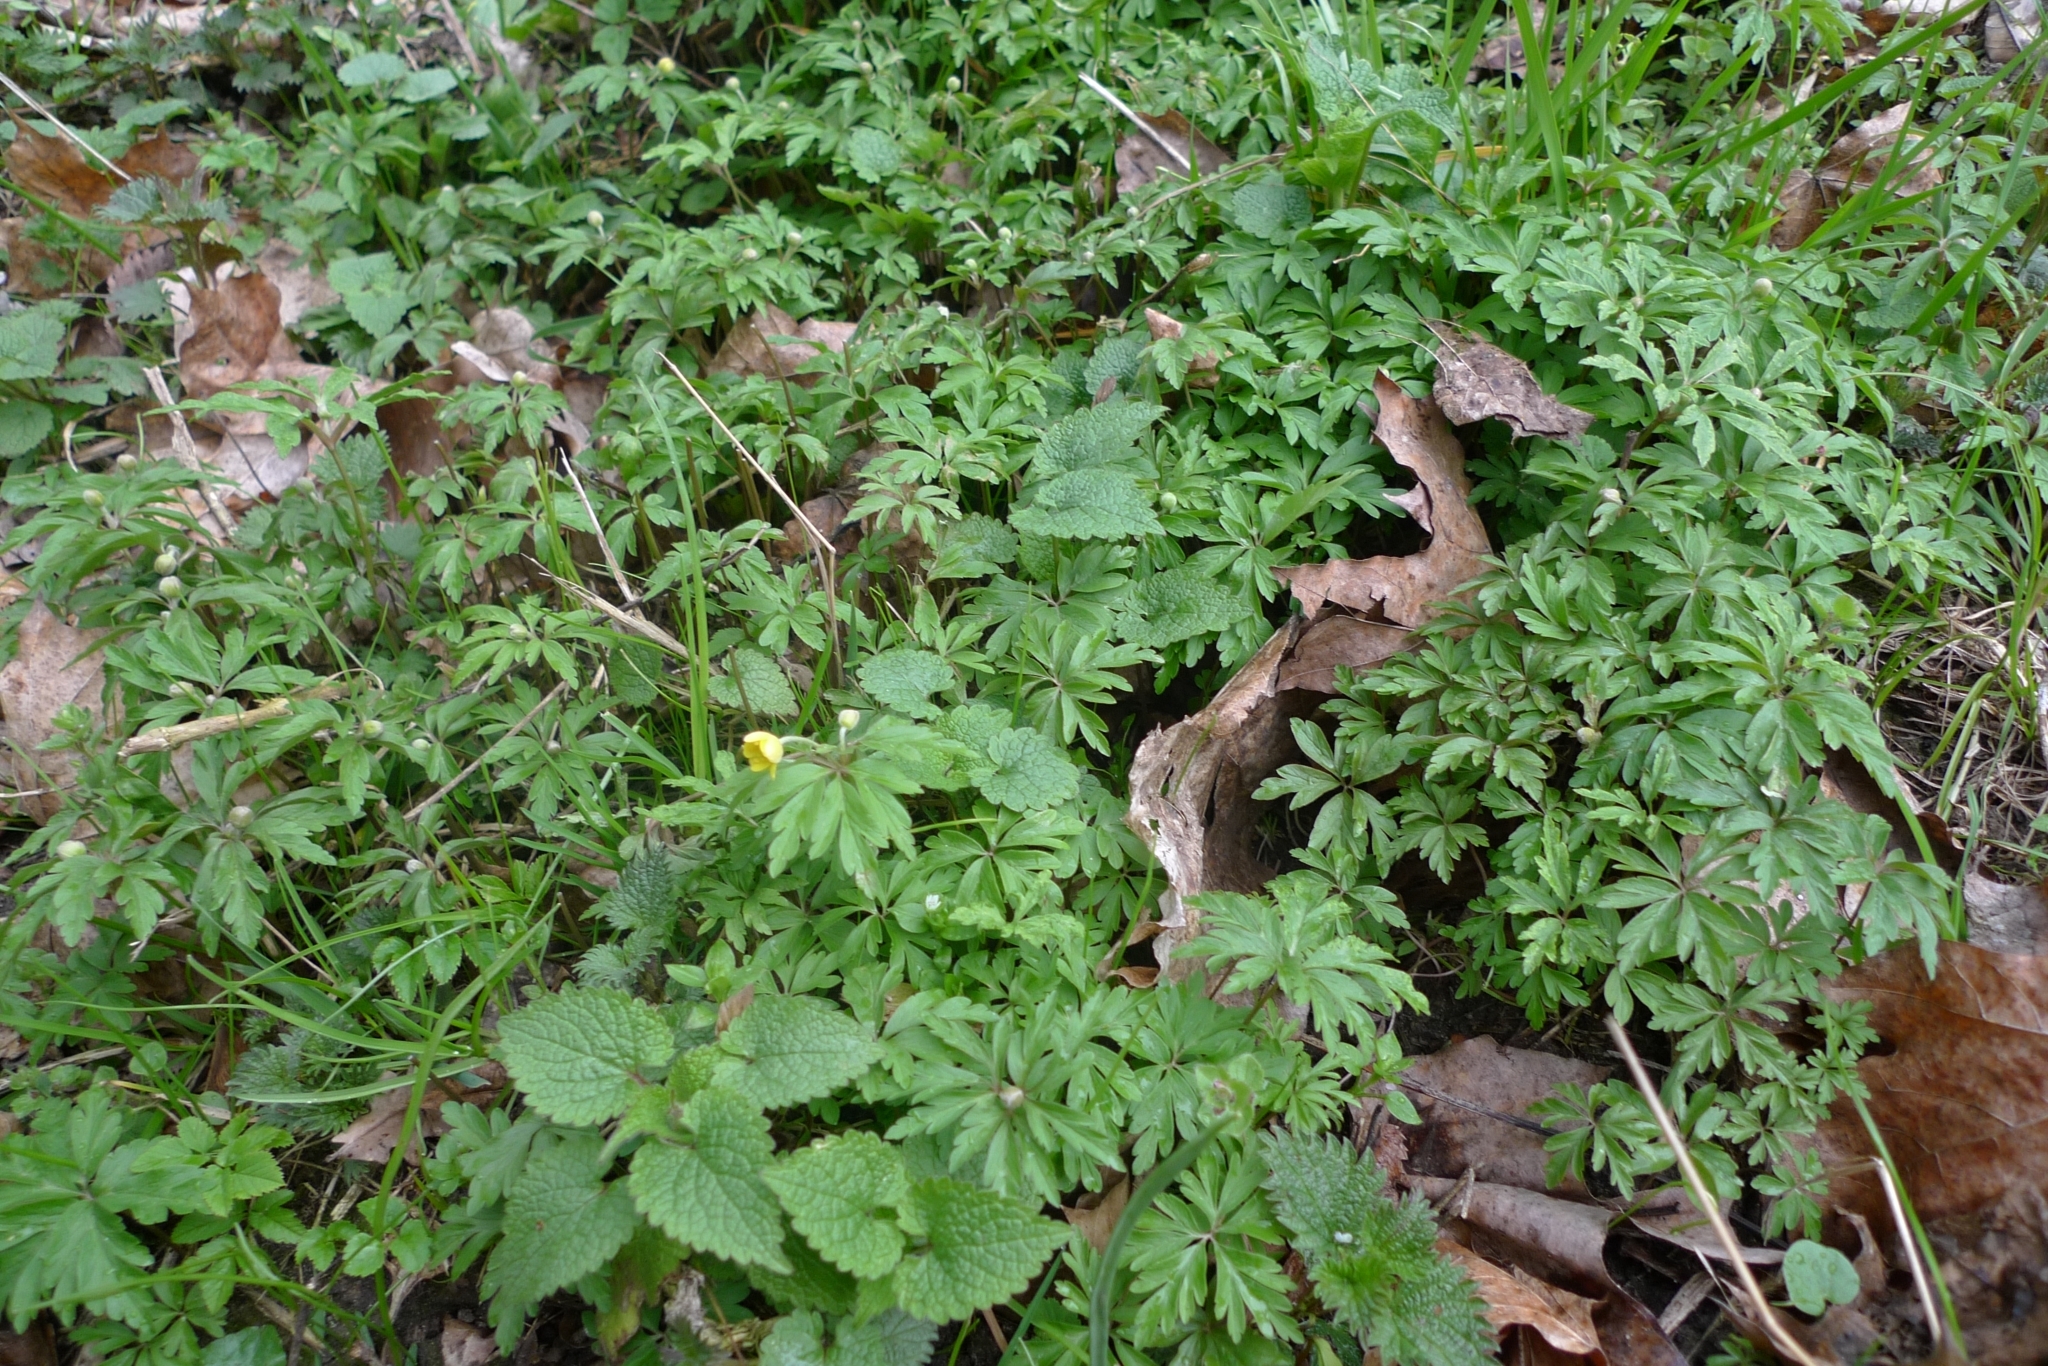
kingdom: Plantae
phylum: Tracheophyta
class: Magnoliopsida
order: Ranunculales
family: Ranunculaceae
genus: Anemone
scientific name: Anemone ranunculoides
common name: Yellow anemone
